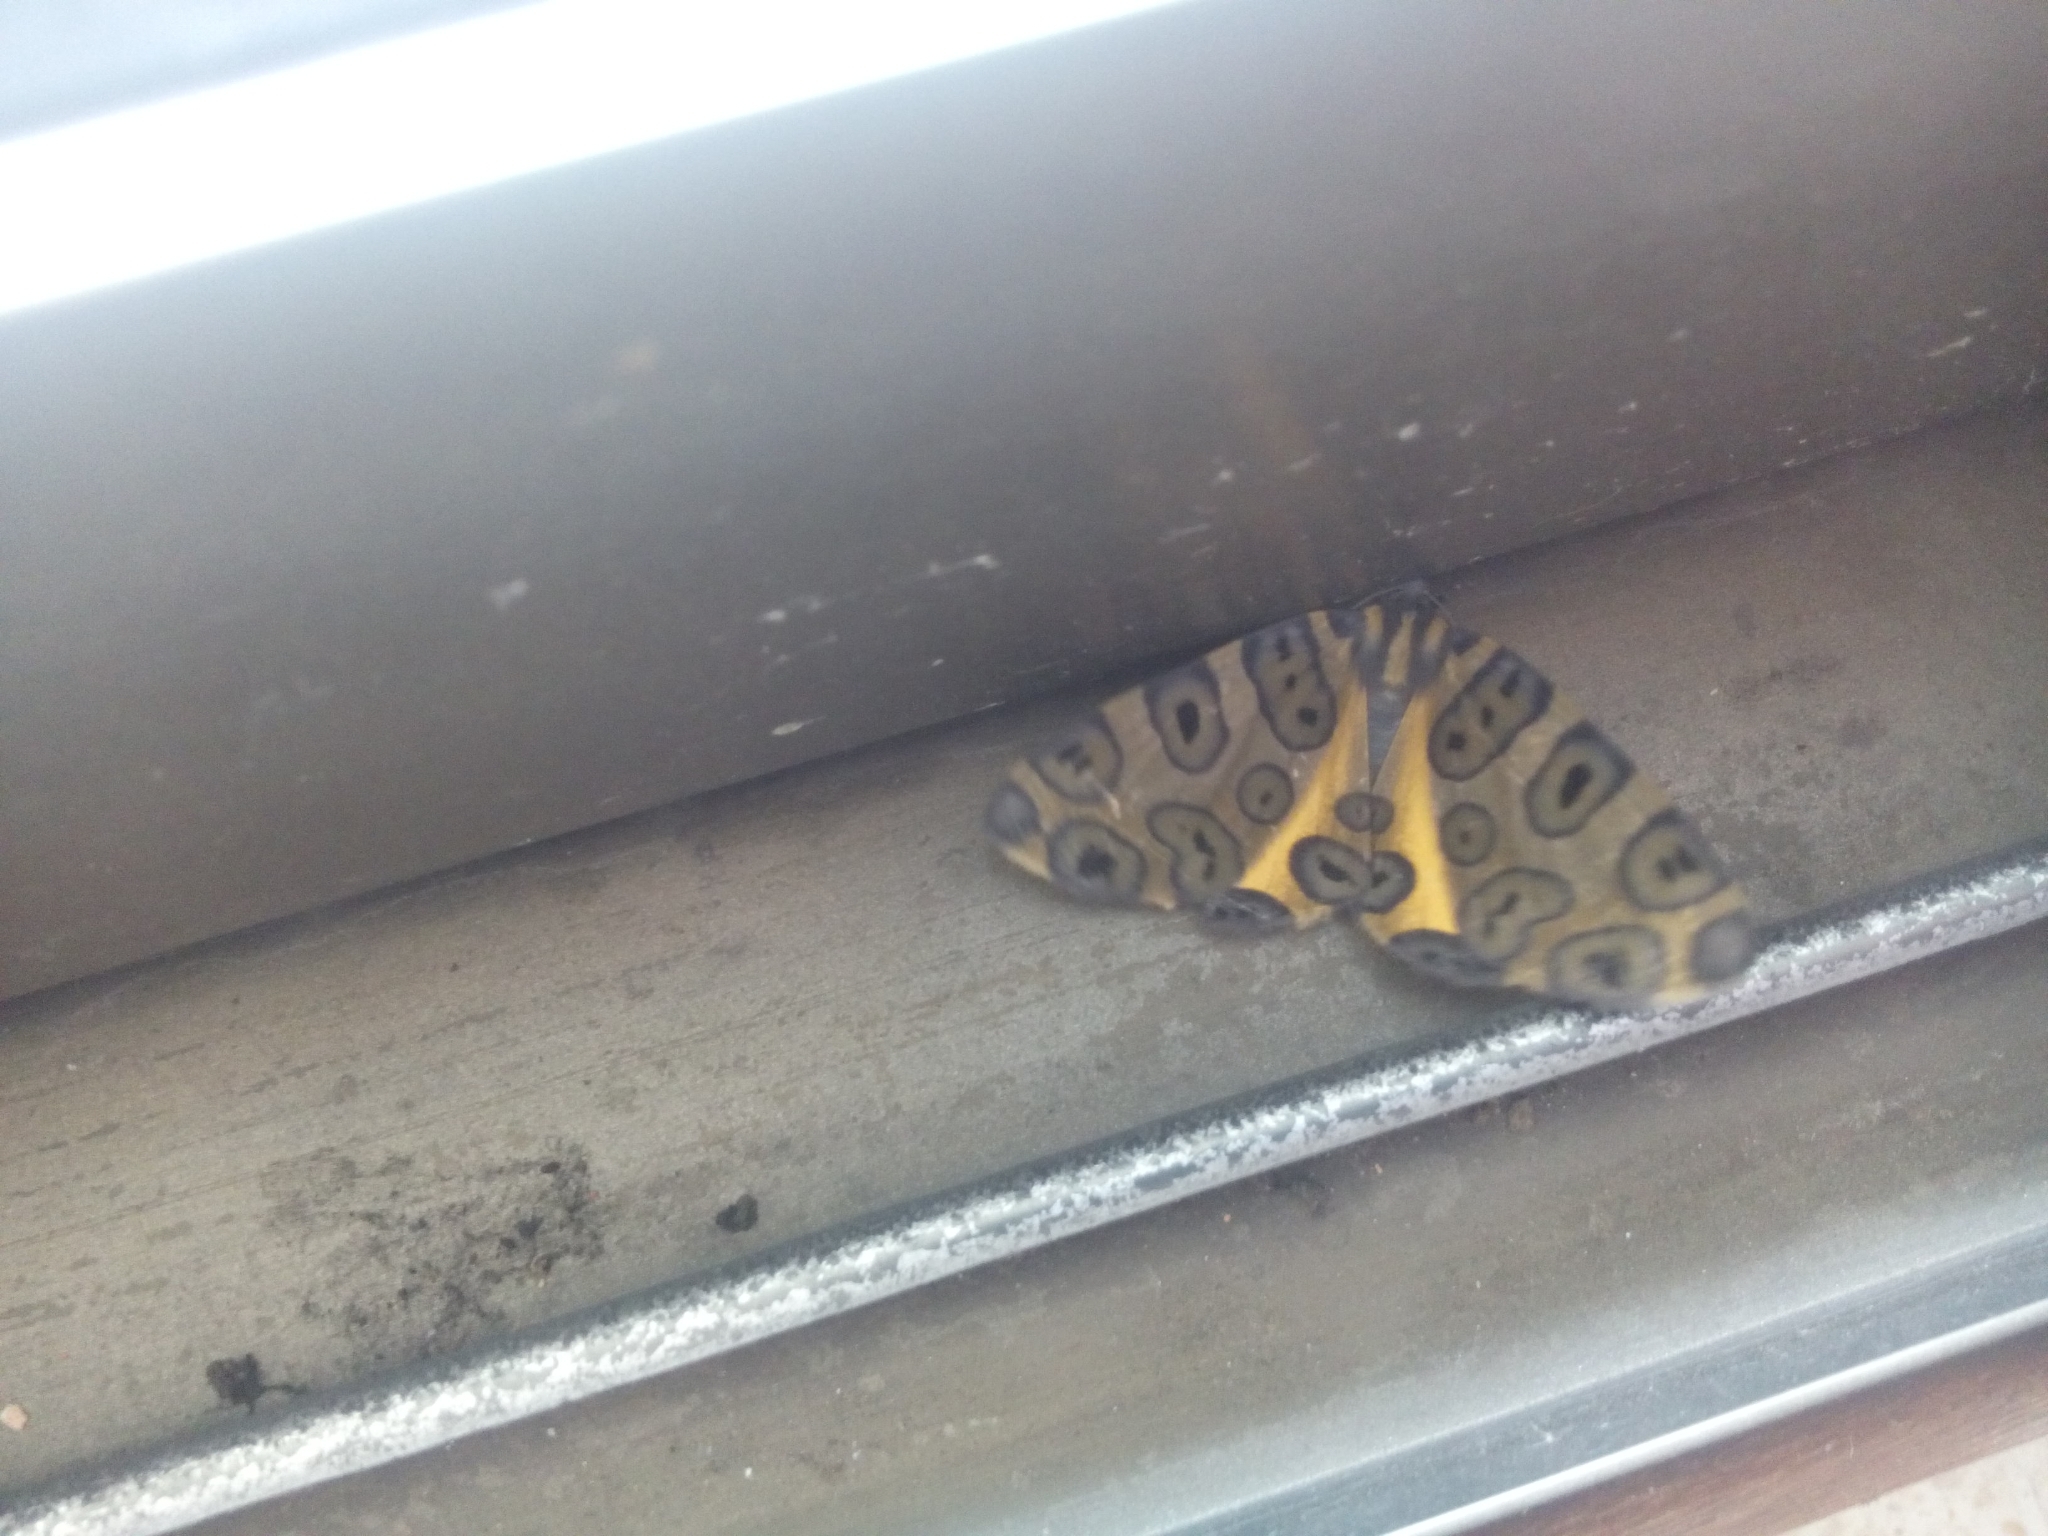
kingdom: Animalia
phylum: Arthropoda
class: Insecta
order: Lepidoptera
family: Geometridae
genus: Pantherodes
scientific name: Pantherodes pardalaria
